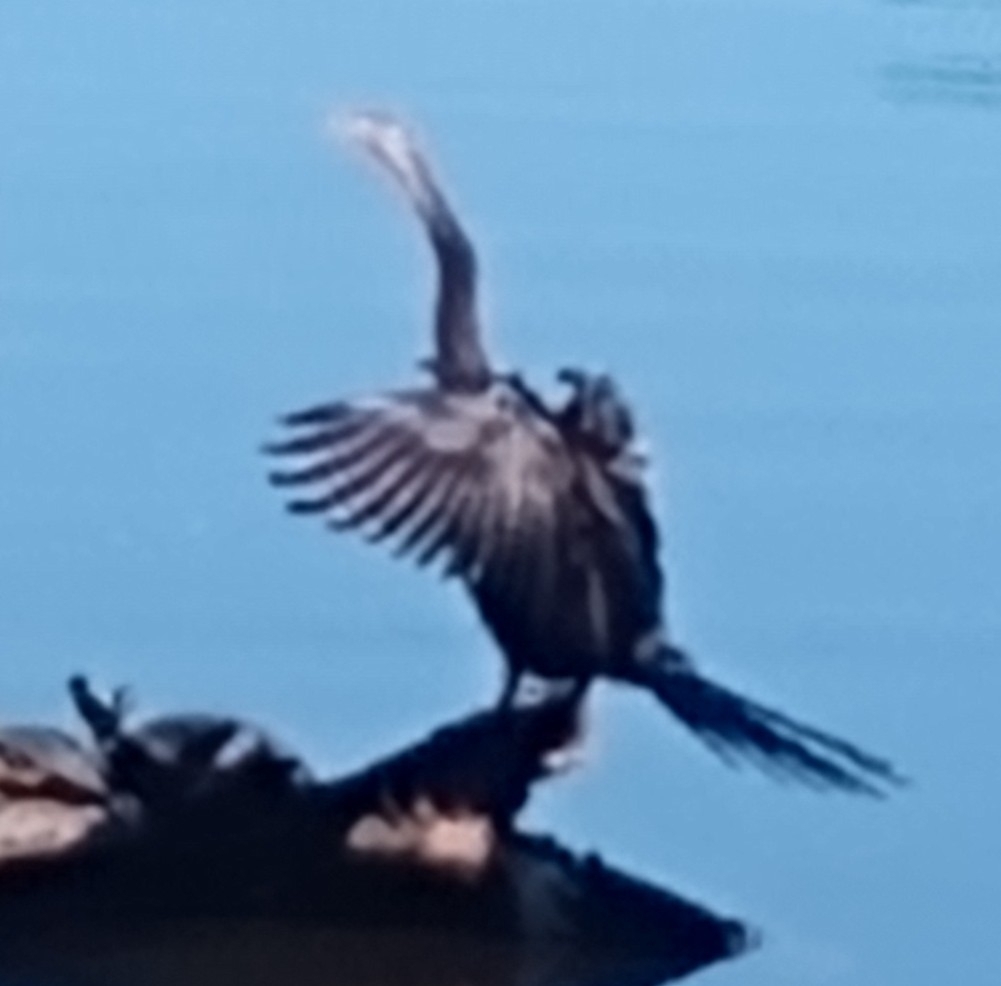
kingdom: Animalia
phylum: Chordata
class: Aves
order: Suliformes
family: Anhingidae
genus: Anhinga
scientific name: Anhinga anhinga
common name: Anhinga
